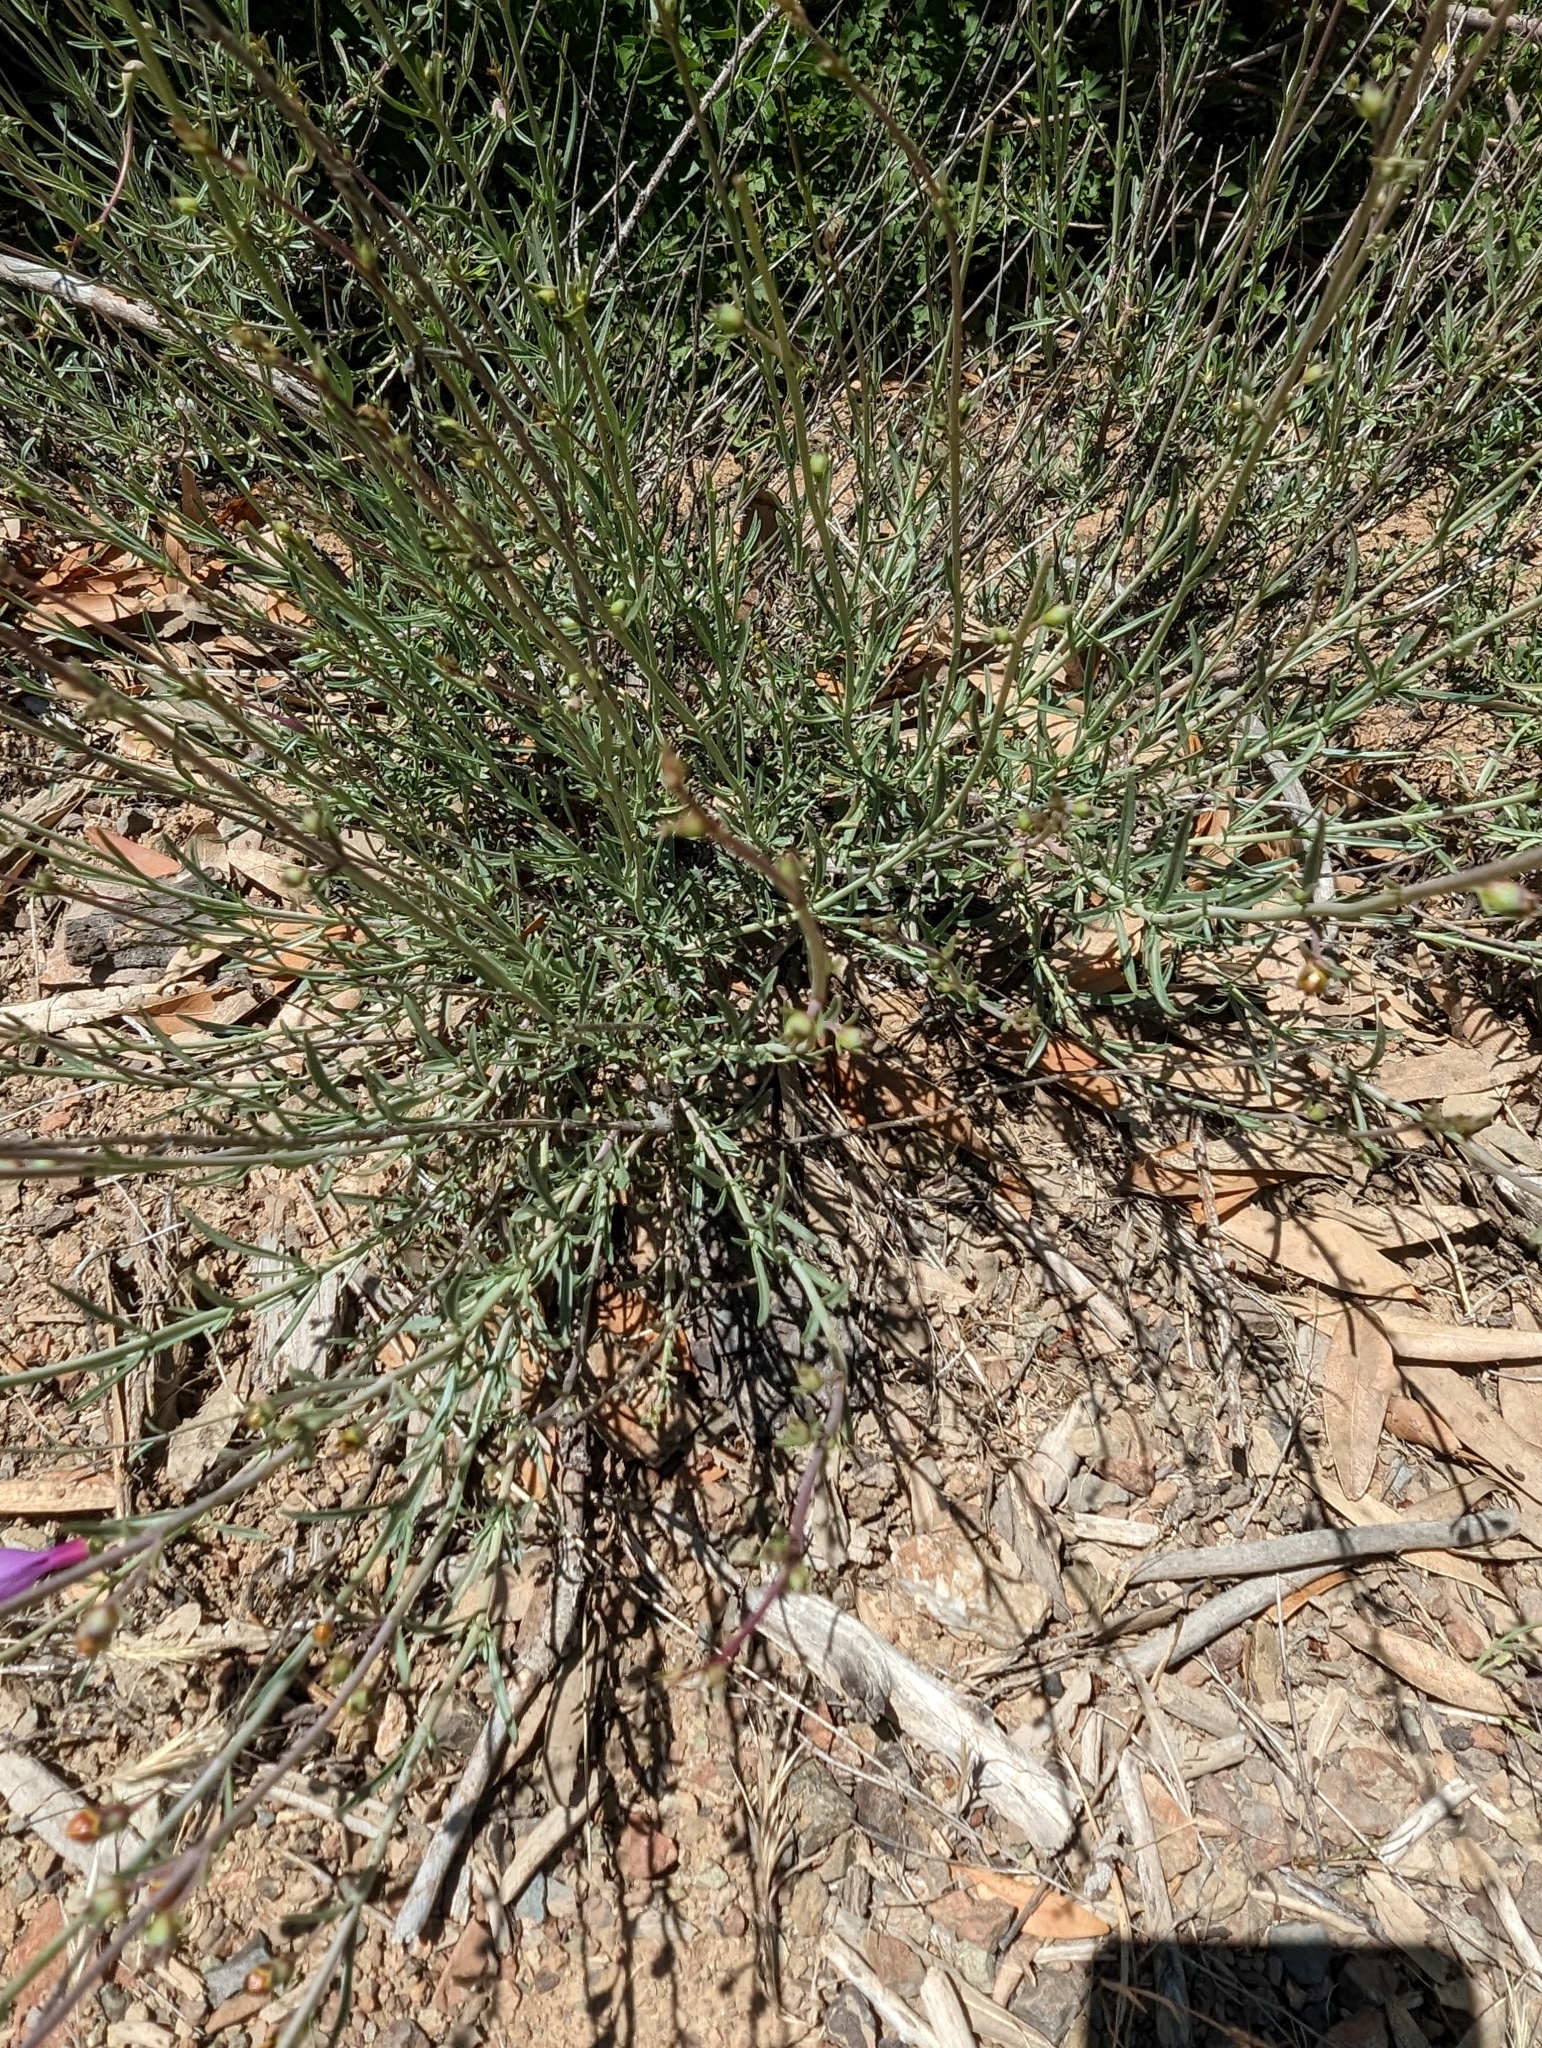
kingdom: Plantae
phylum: Tracheophyta
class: Magnoliopsida
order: Lamiales
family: Plantaginaceae
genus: Penstemon
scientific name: Penstemon heterophyllus
